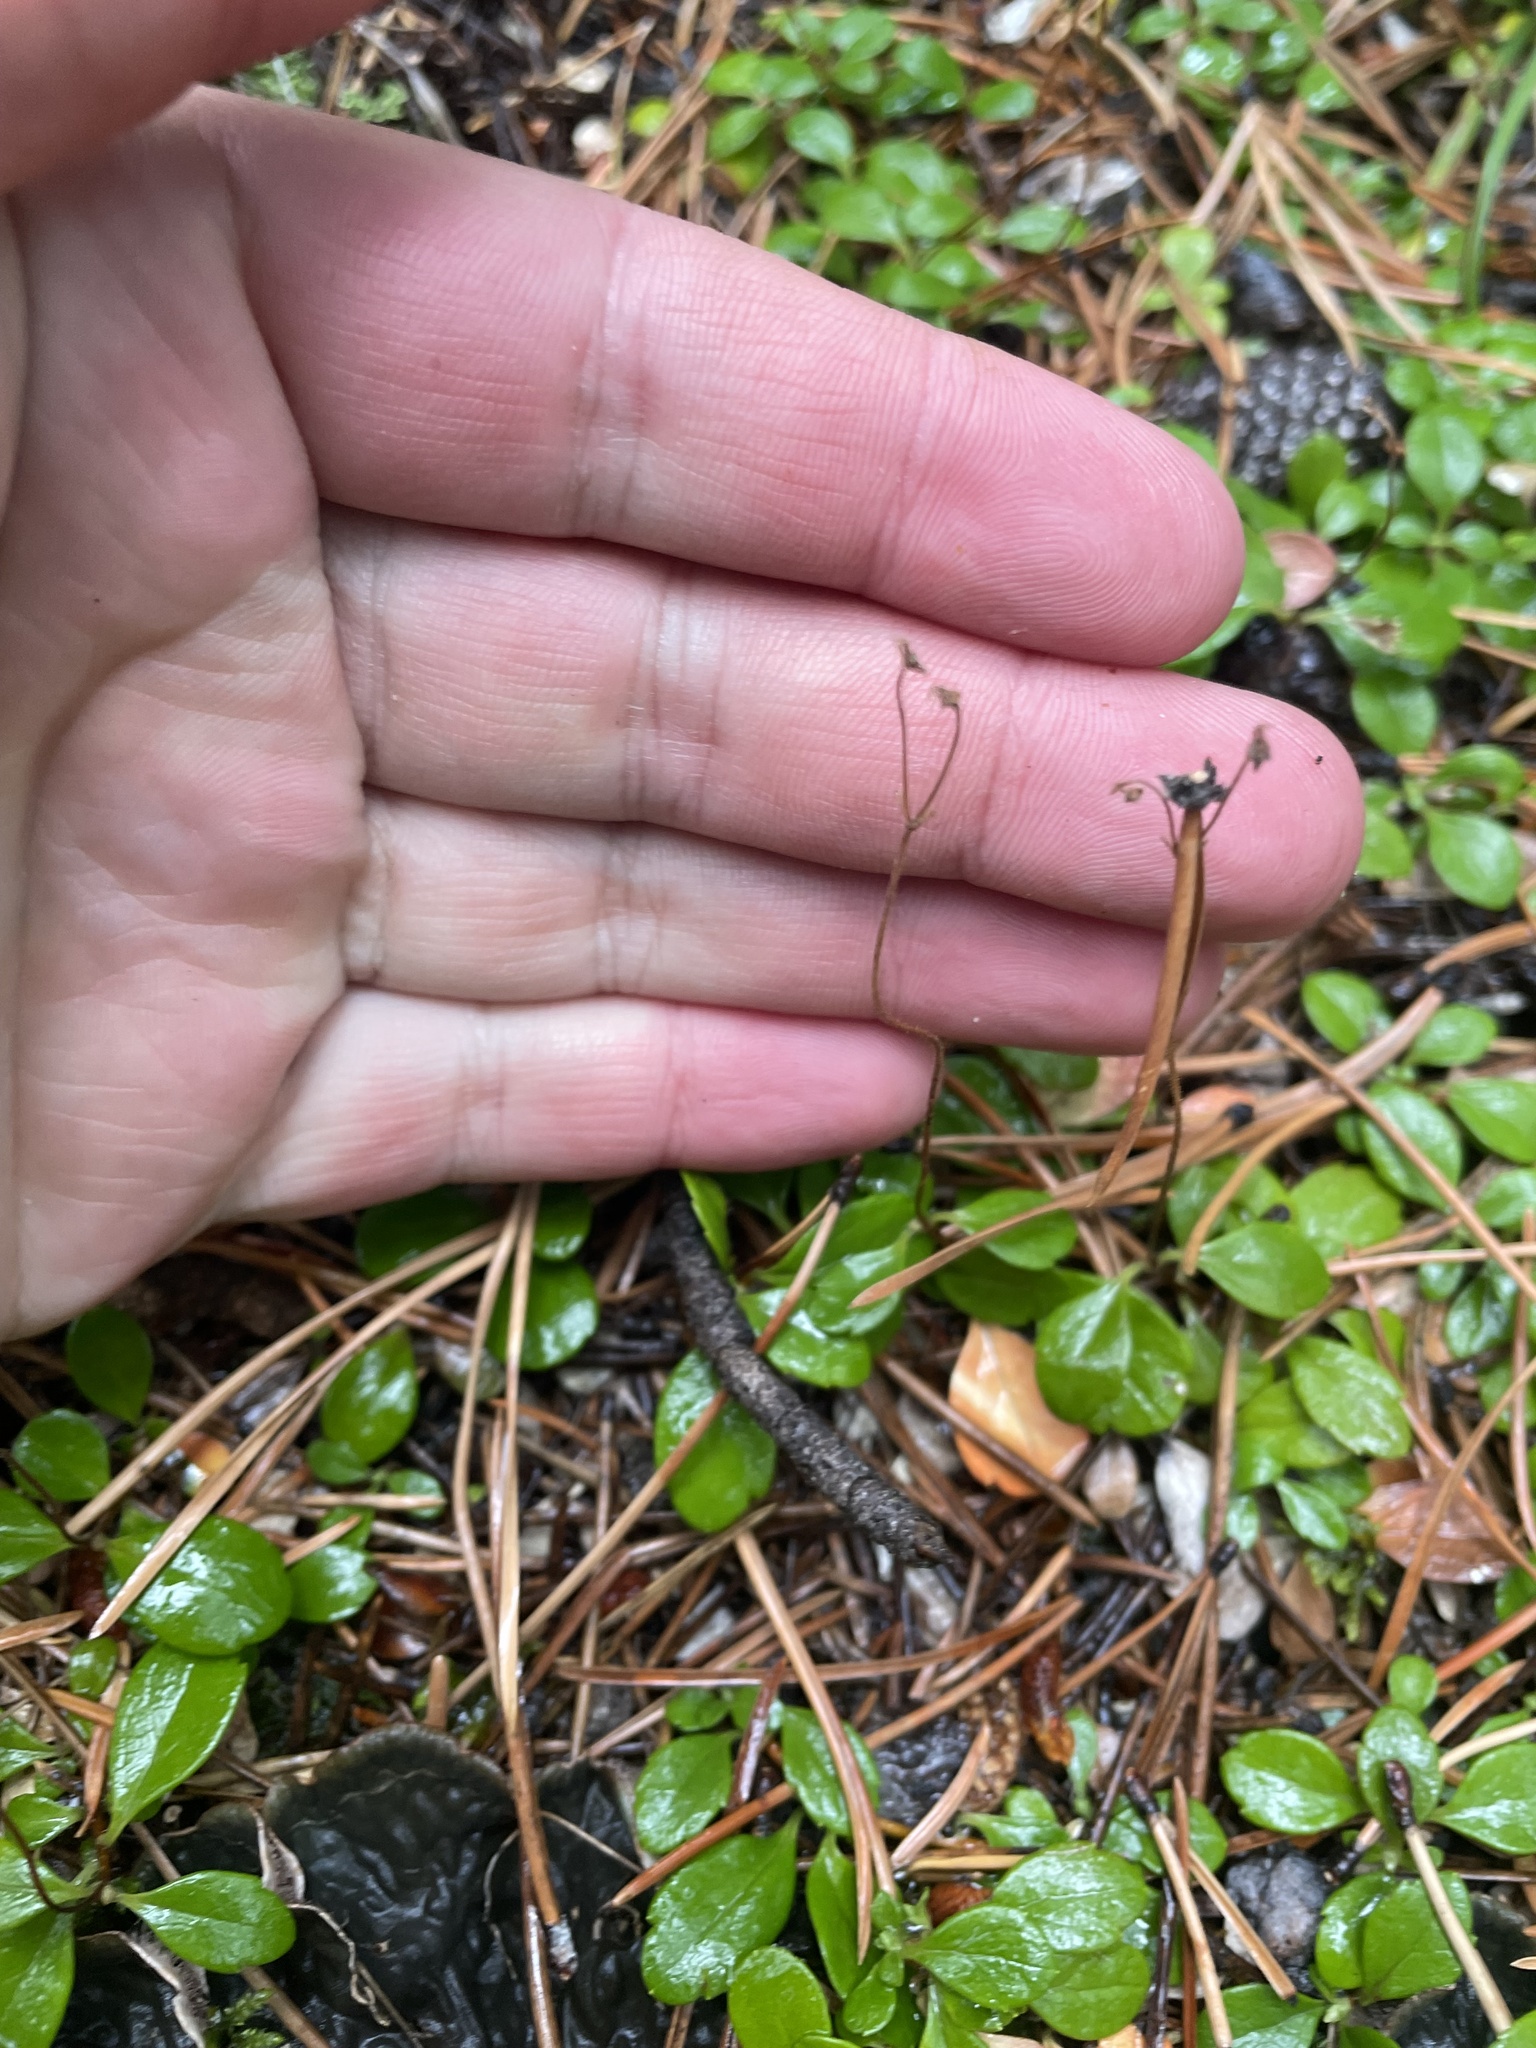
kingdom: Plantae
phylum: Tracheophyta
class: Magnoliopsida
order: Dipsacales
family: Caprifoliaceae
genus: Linnaea
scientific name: Linnaea borealis
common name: Twinflower
